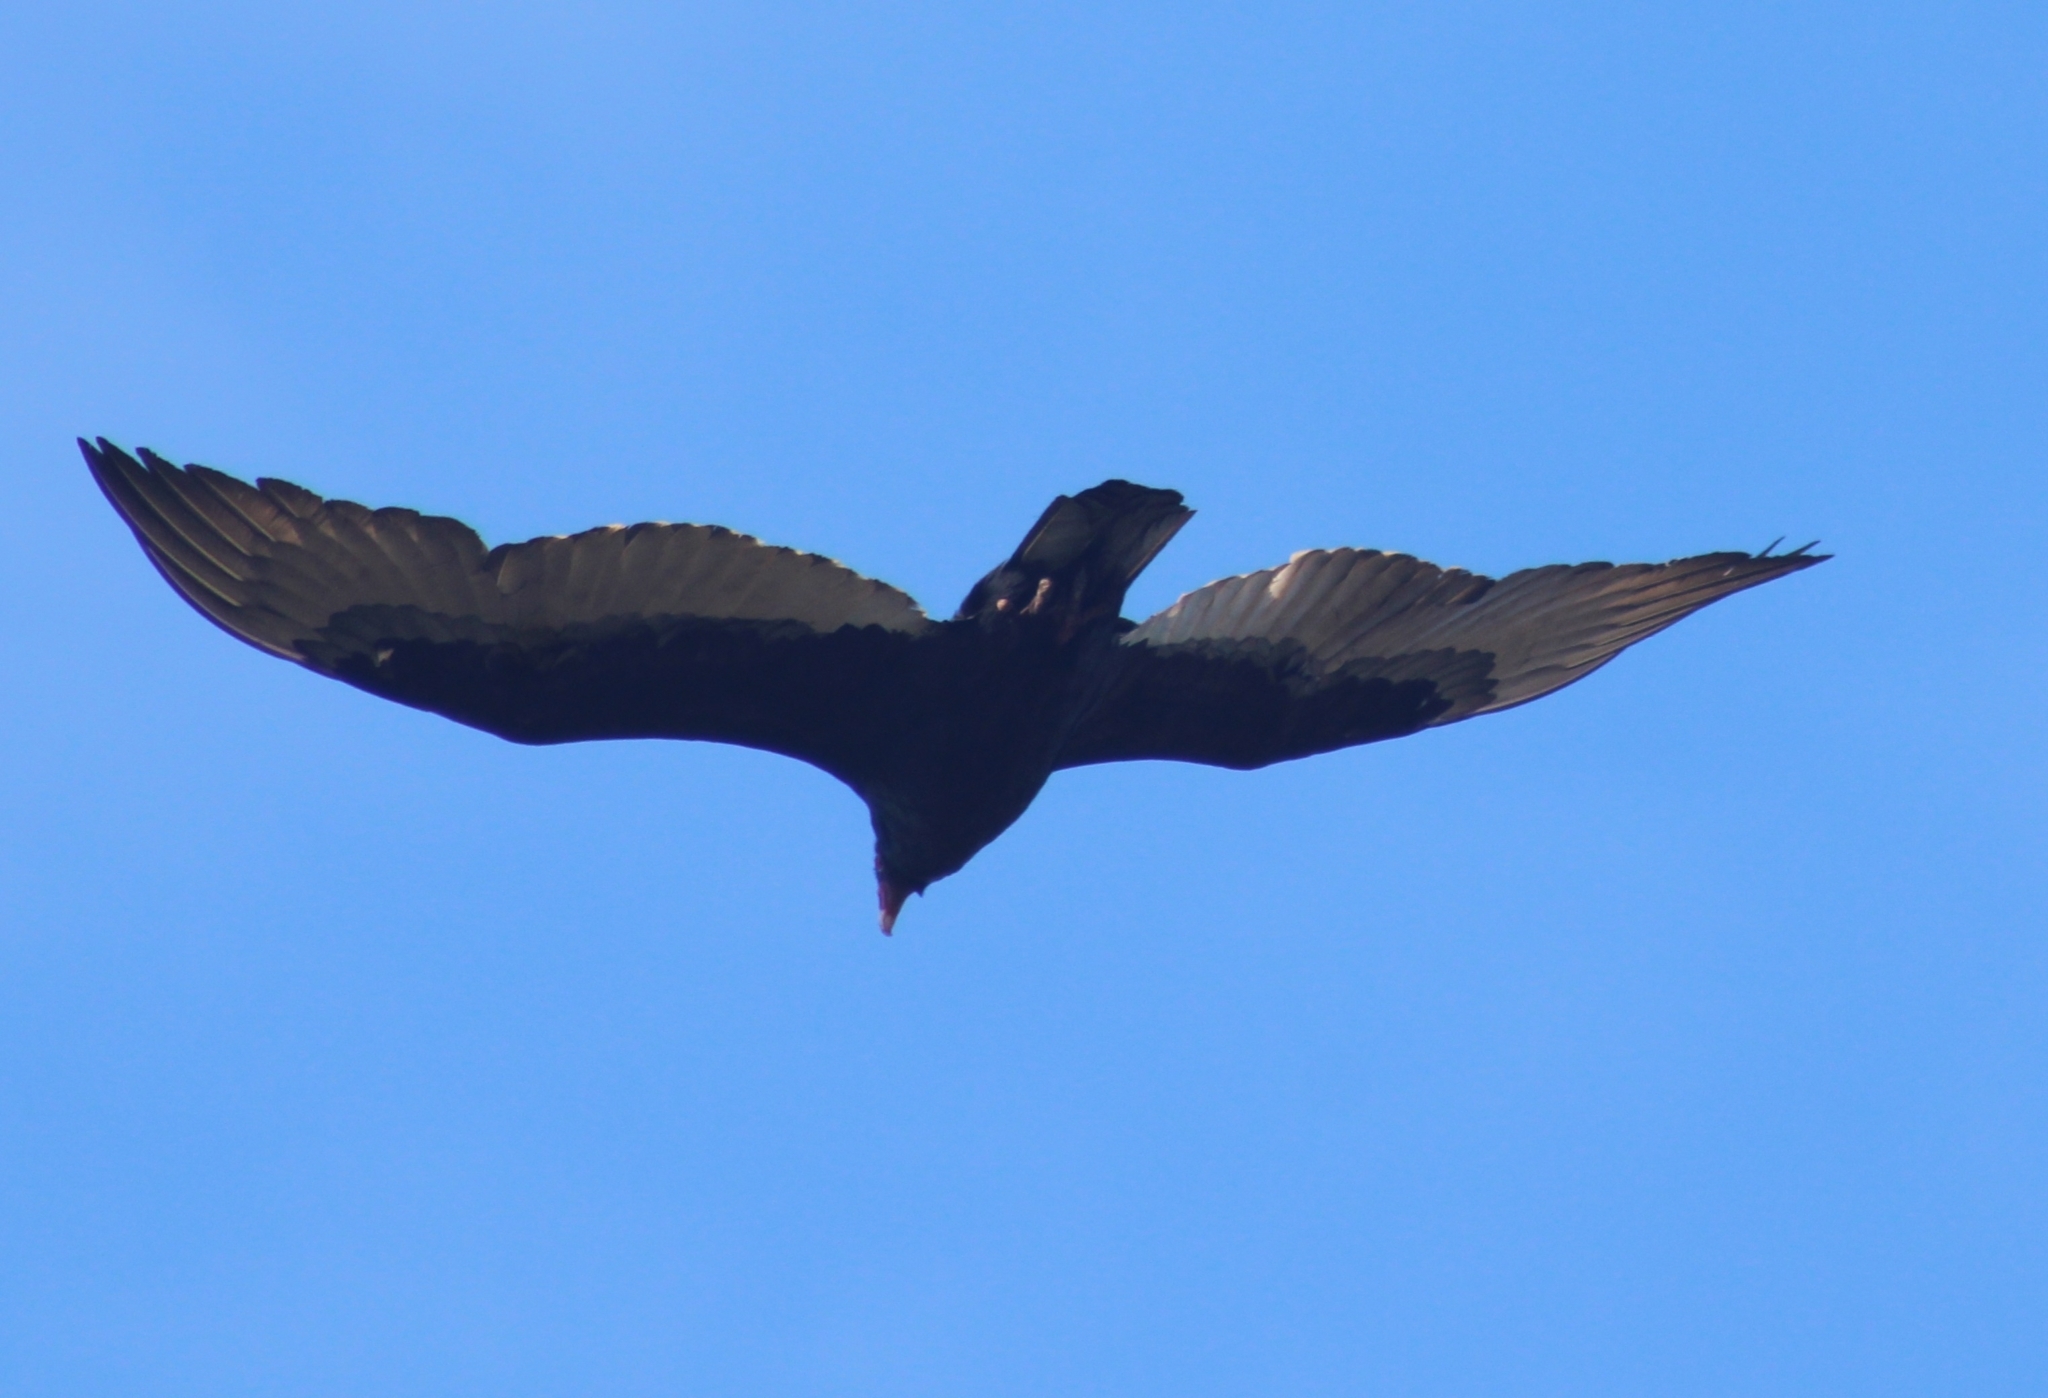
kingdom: Animalia
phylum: Chordata
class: Aves
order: Accipitriformes
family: Cathartidae
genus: Cathartes
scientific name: Cathartes aura
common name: Turkey vulture
